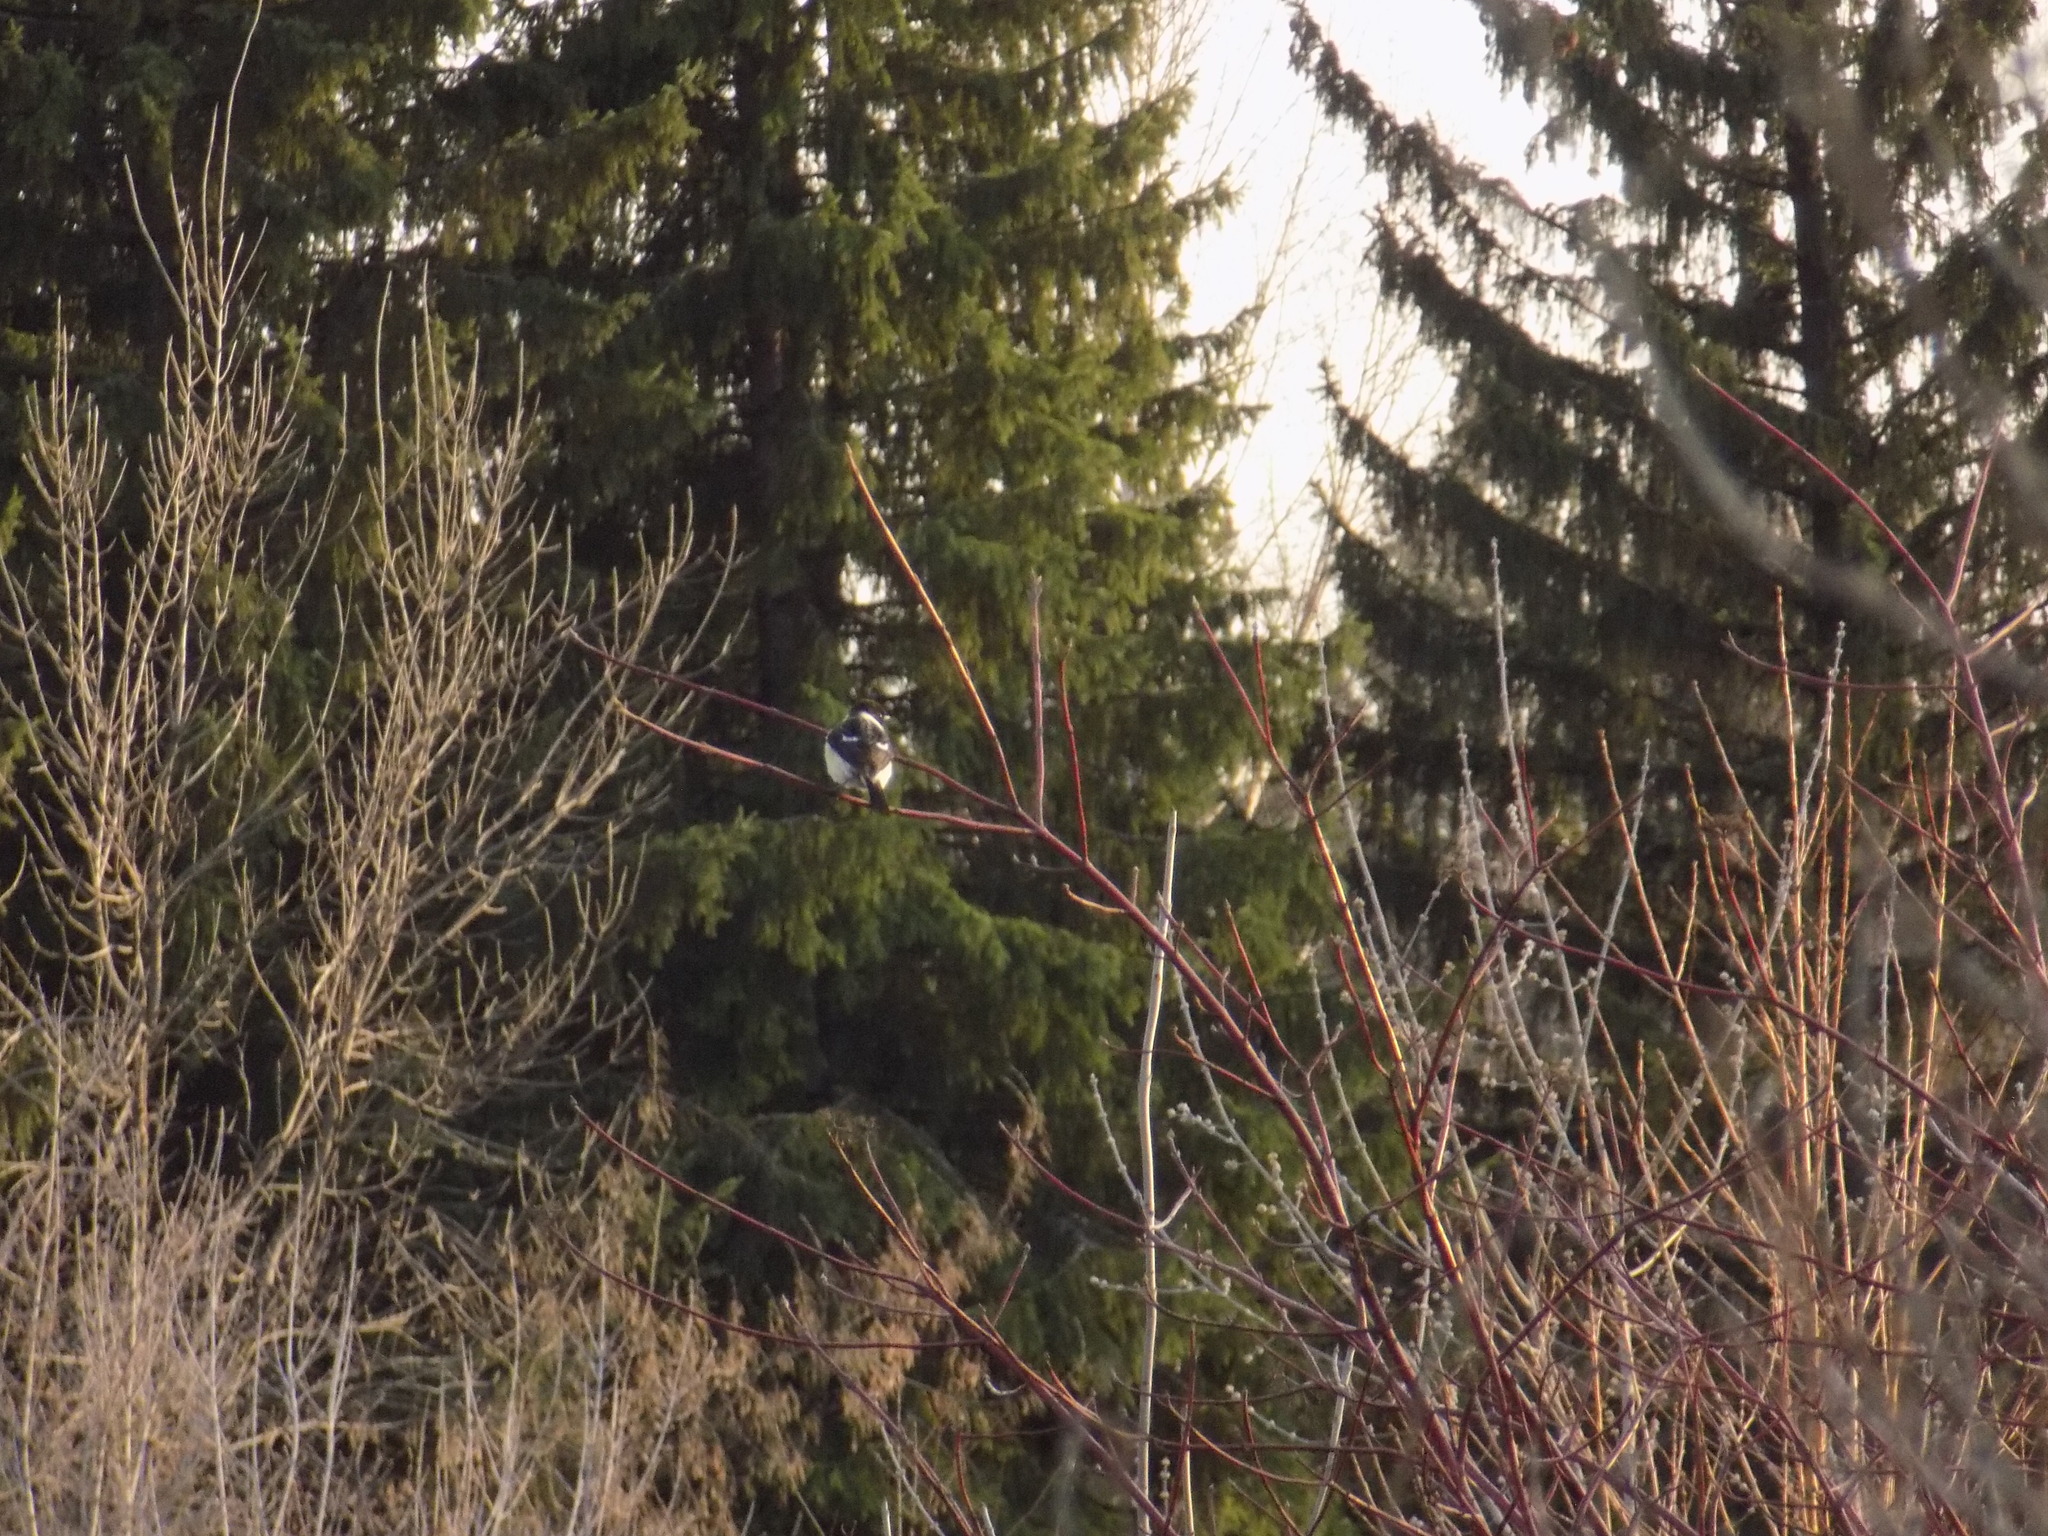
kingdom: Animalia
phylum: Chordata
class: Aves
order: Passeriformes
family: Muscicapidae
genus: Saxicola
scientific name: Saxicola maurus
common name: Siberian stonechat
